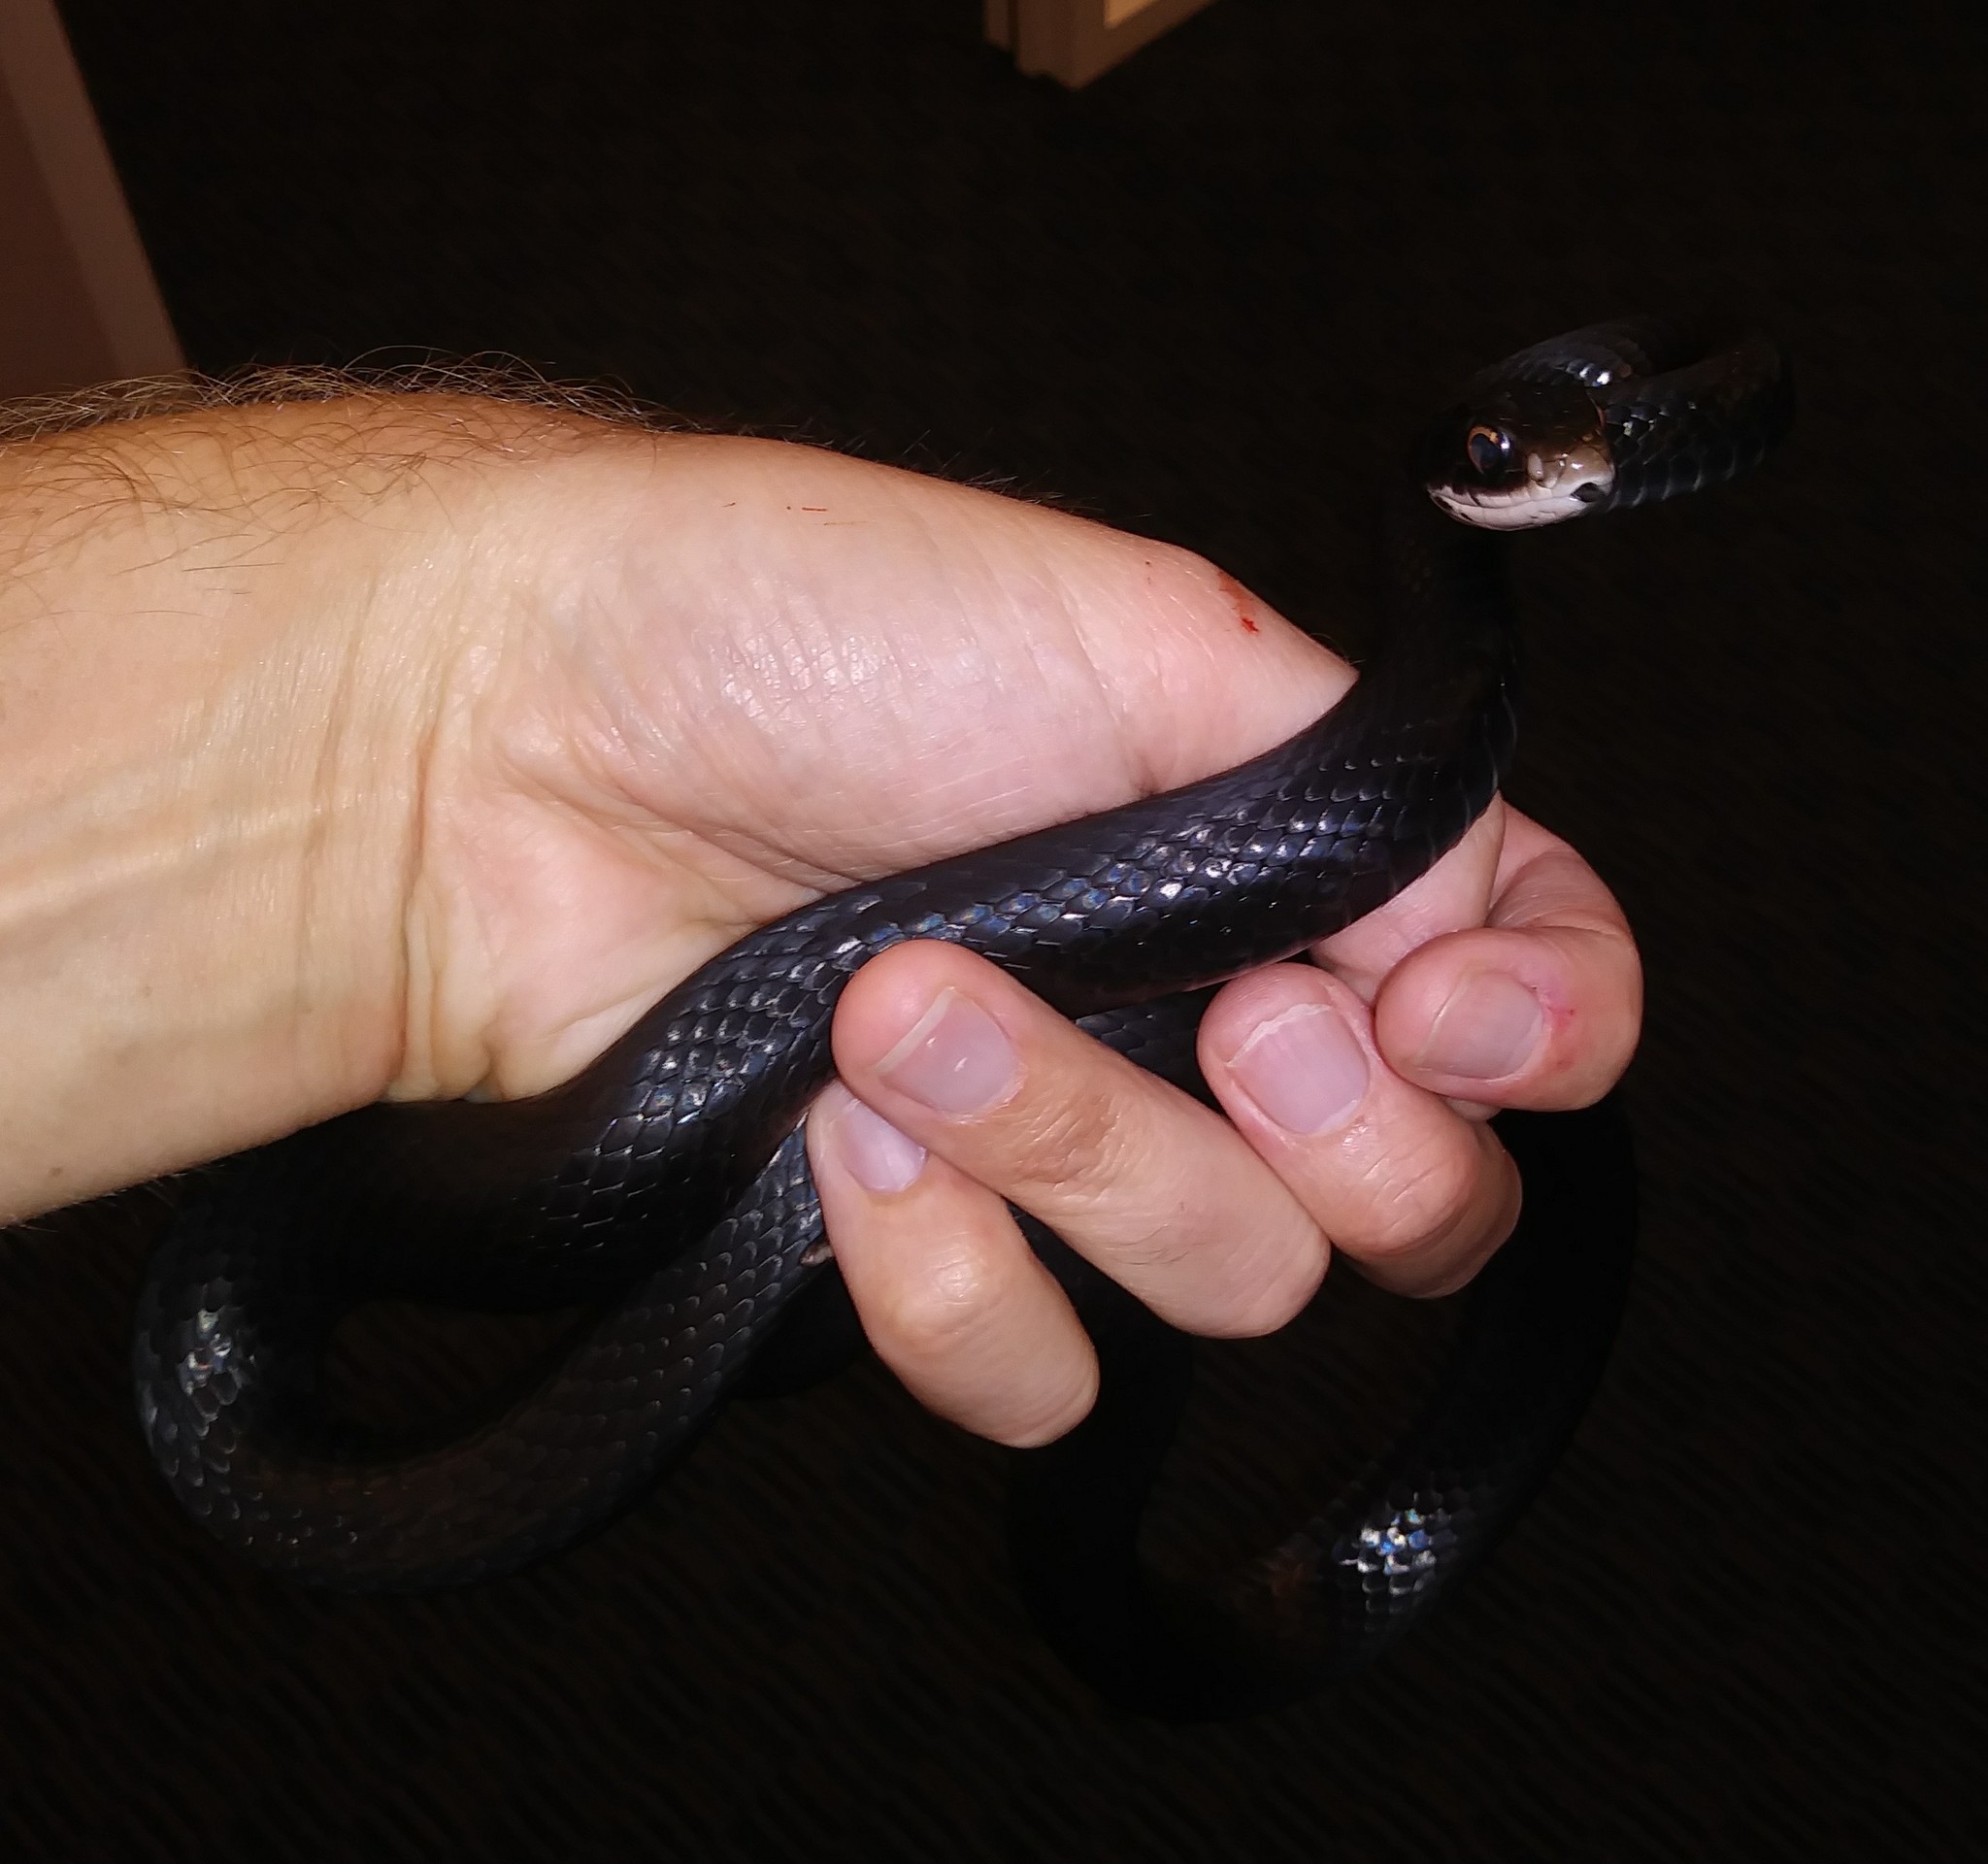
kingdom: Animalia
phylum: Chordata
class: Squamata
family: Colubridae
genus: Coluber
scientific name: Coluber constrictor
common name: Eastern racer
